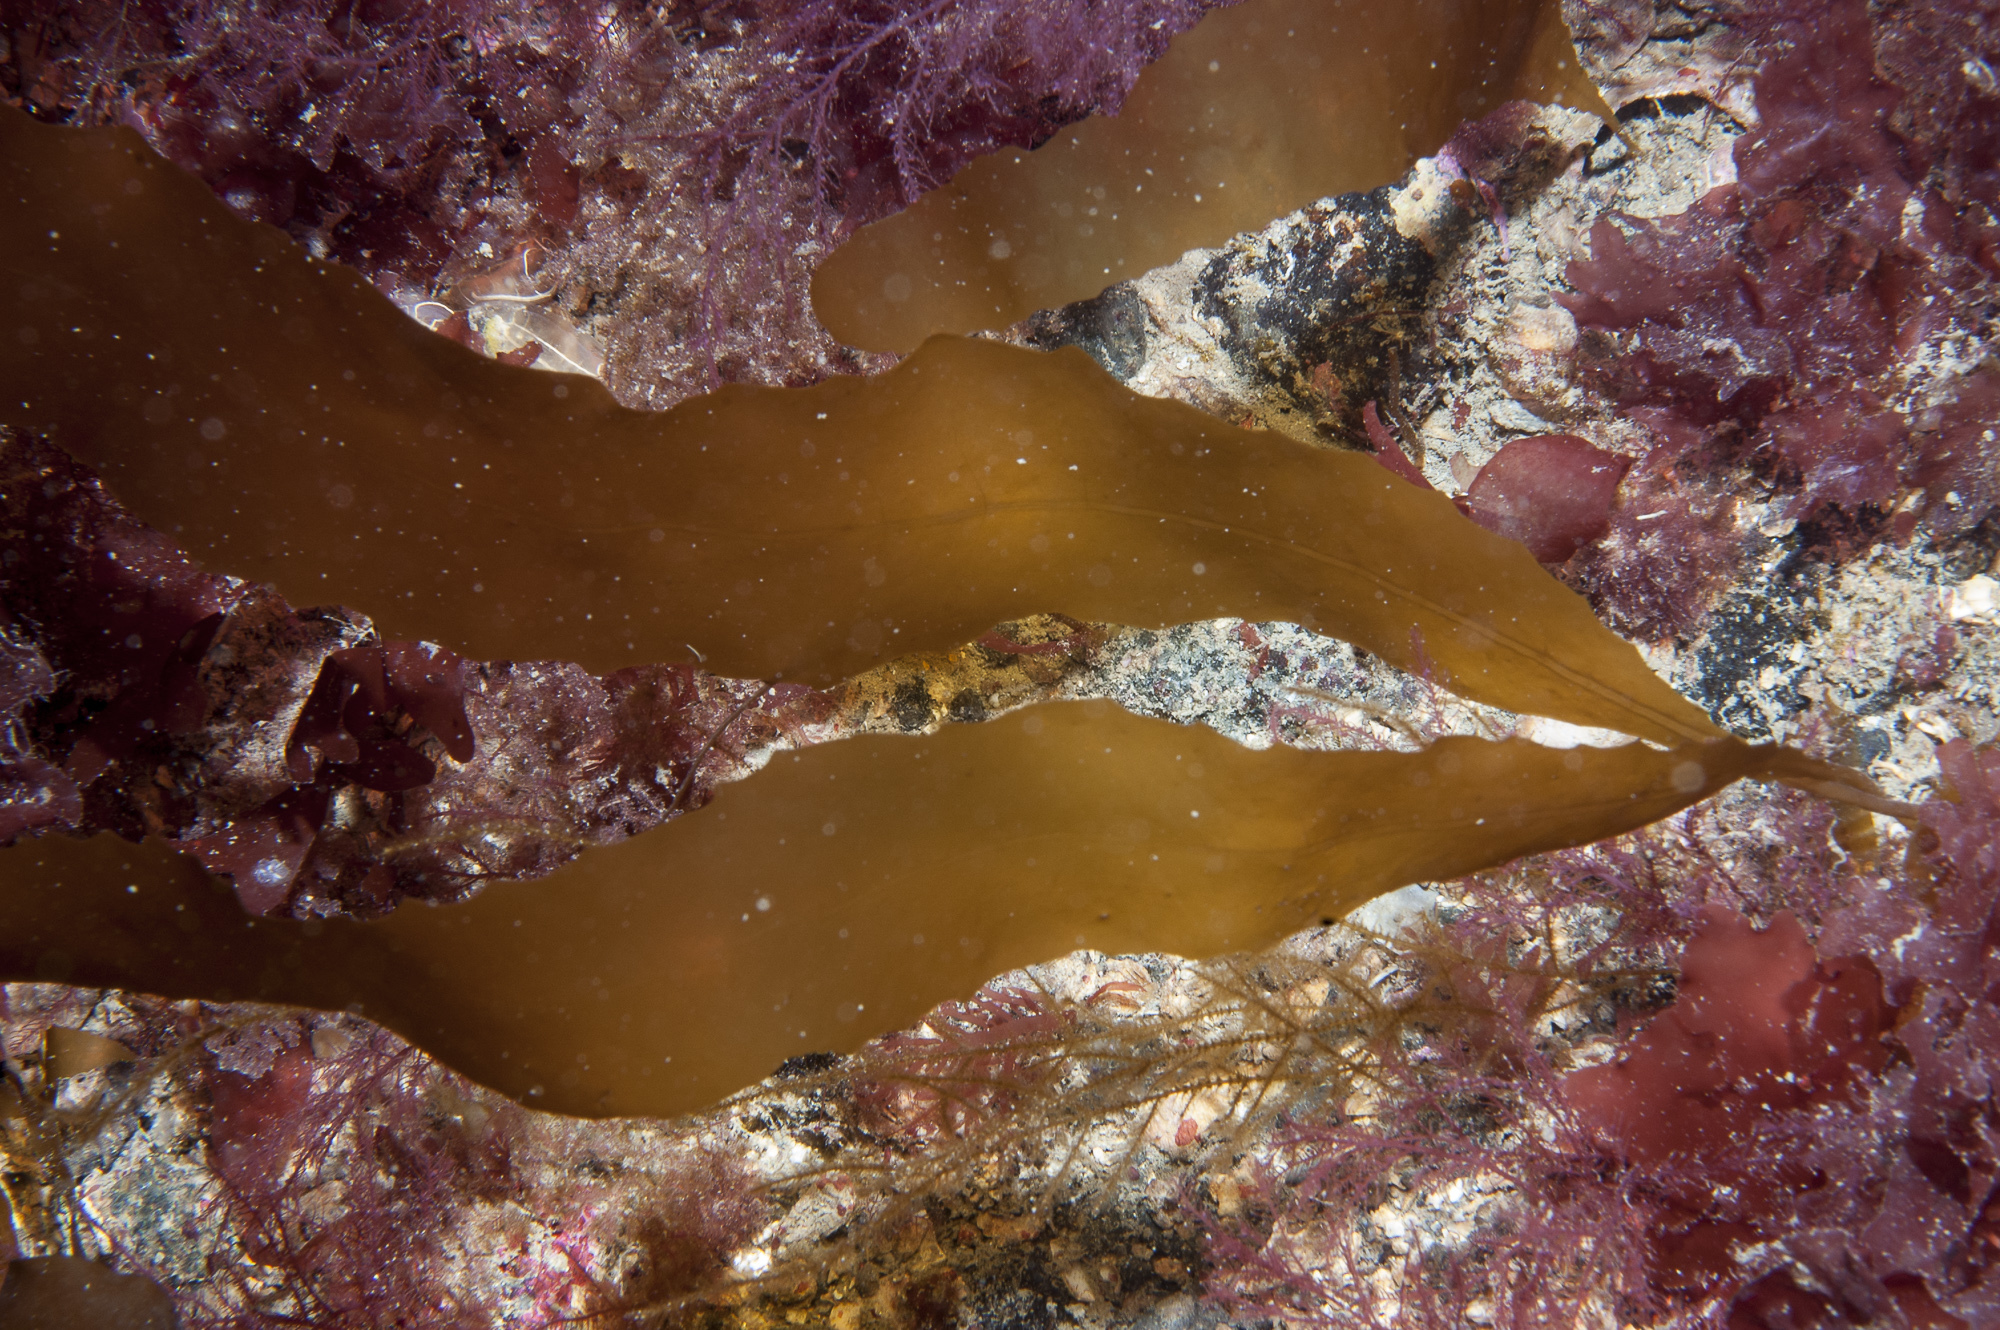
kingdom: Chromista
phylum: Ochrophyta
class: Phaeophyceae
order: Desmarestiales
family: Desmarestiaceae
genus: Desmarestia
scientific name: Desmarestia dudresnayi
